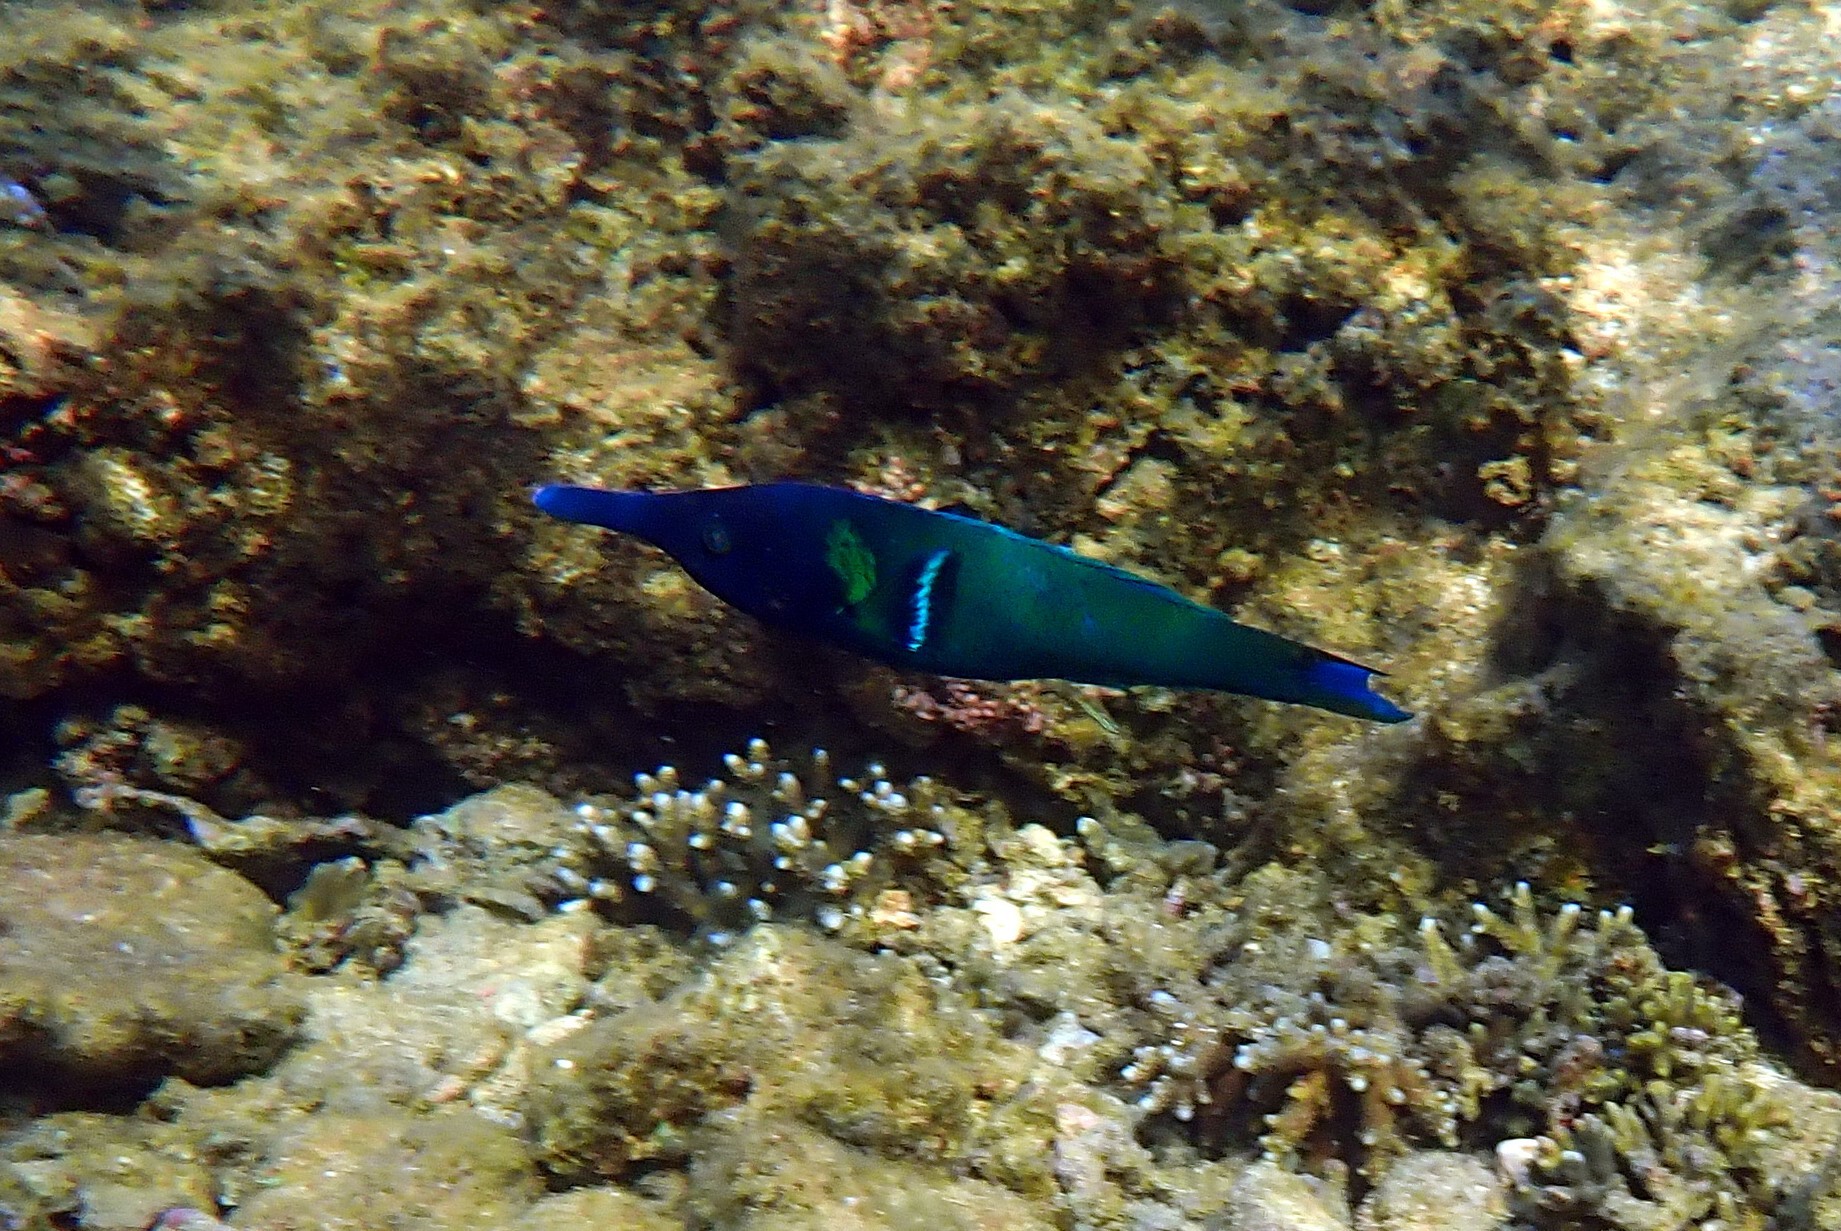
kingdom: Animalia
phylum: Chordata
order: Perciformes
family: Labridae
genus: Gomphosus
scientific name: Gomphosus varius
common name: Bird wrasse
